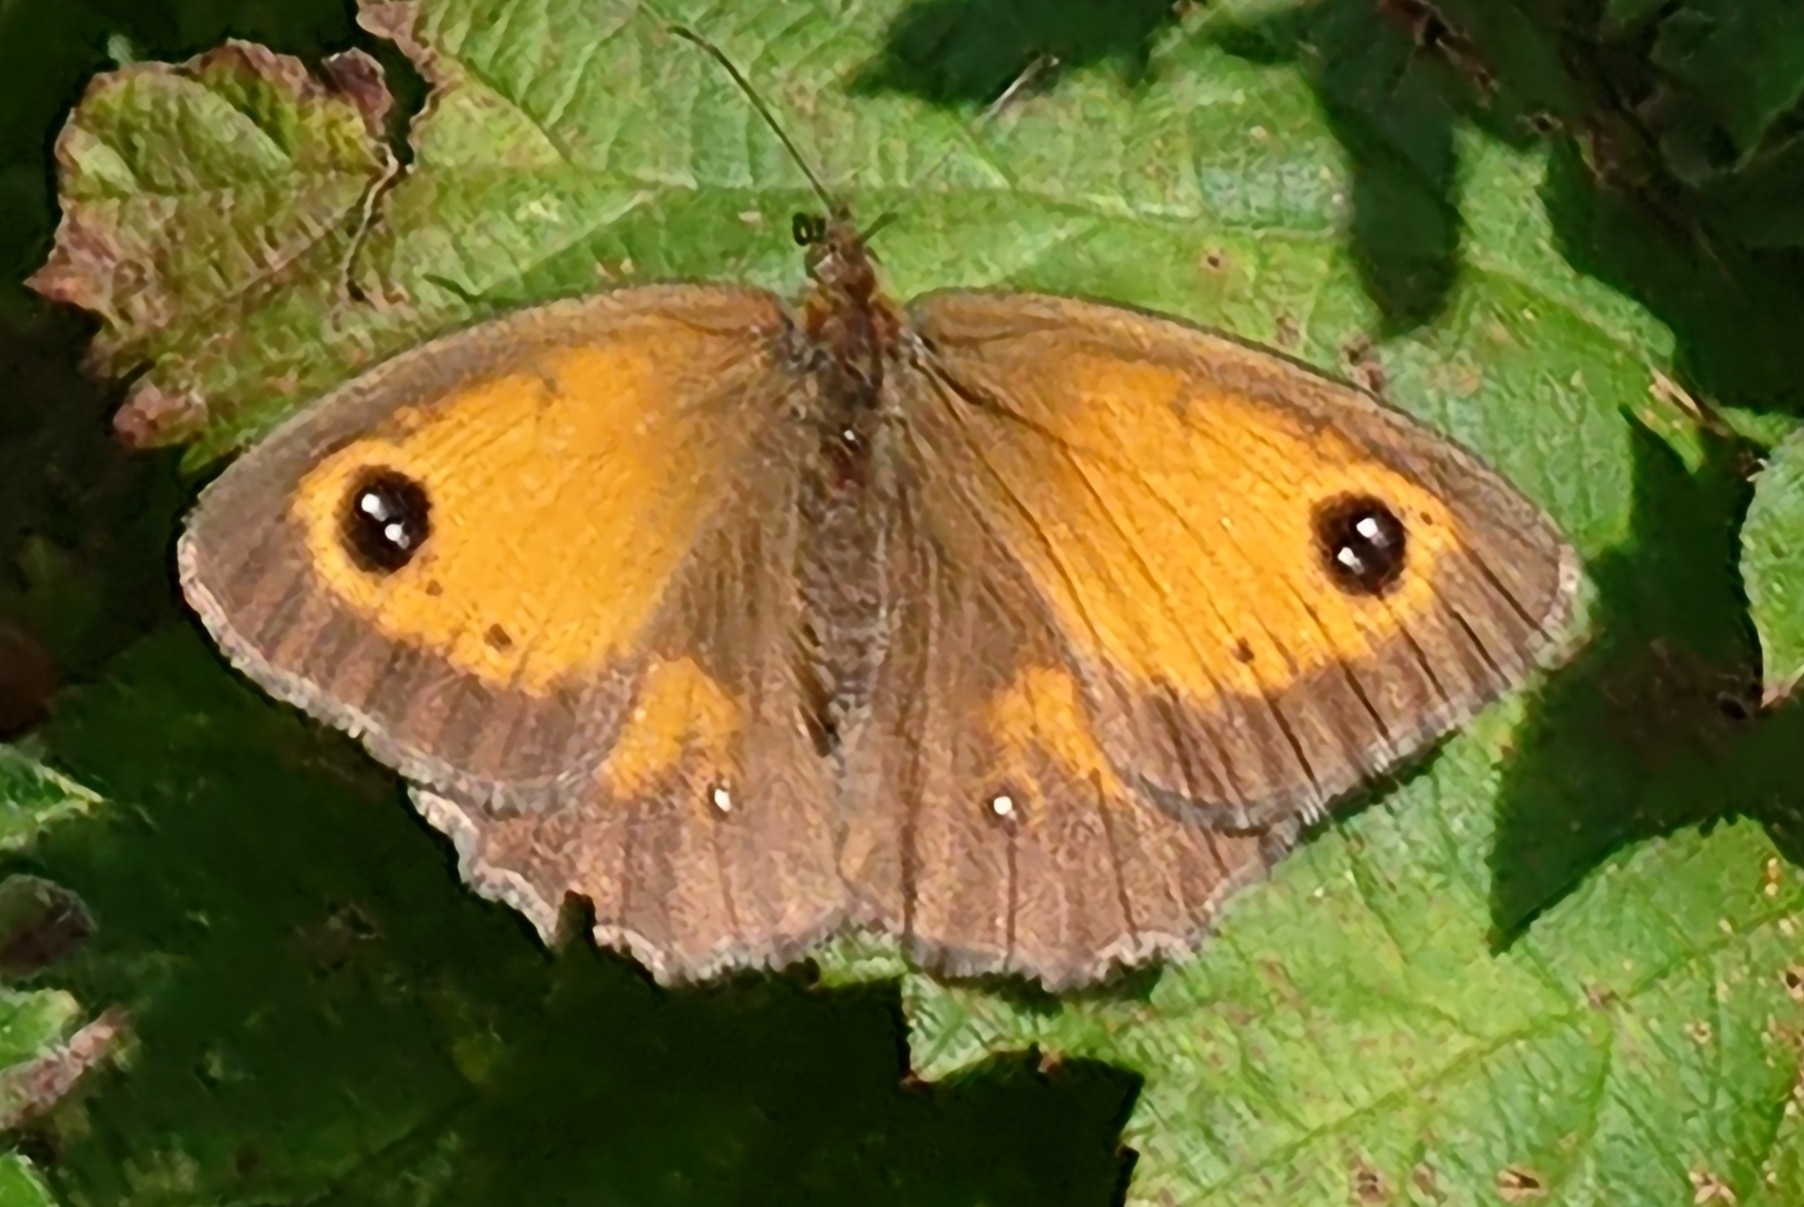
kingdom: Animalia
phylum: Arthropoda
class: Insecta
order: Lepidoptera
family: Nymphalidae
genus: Pyronia
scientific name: Pyronia tithonus
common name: Gatekeeper
